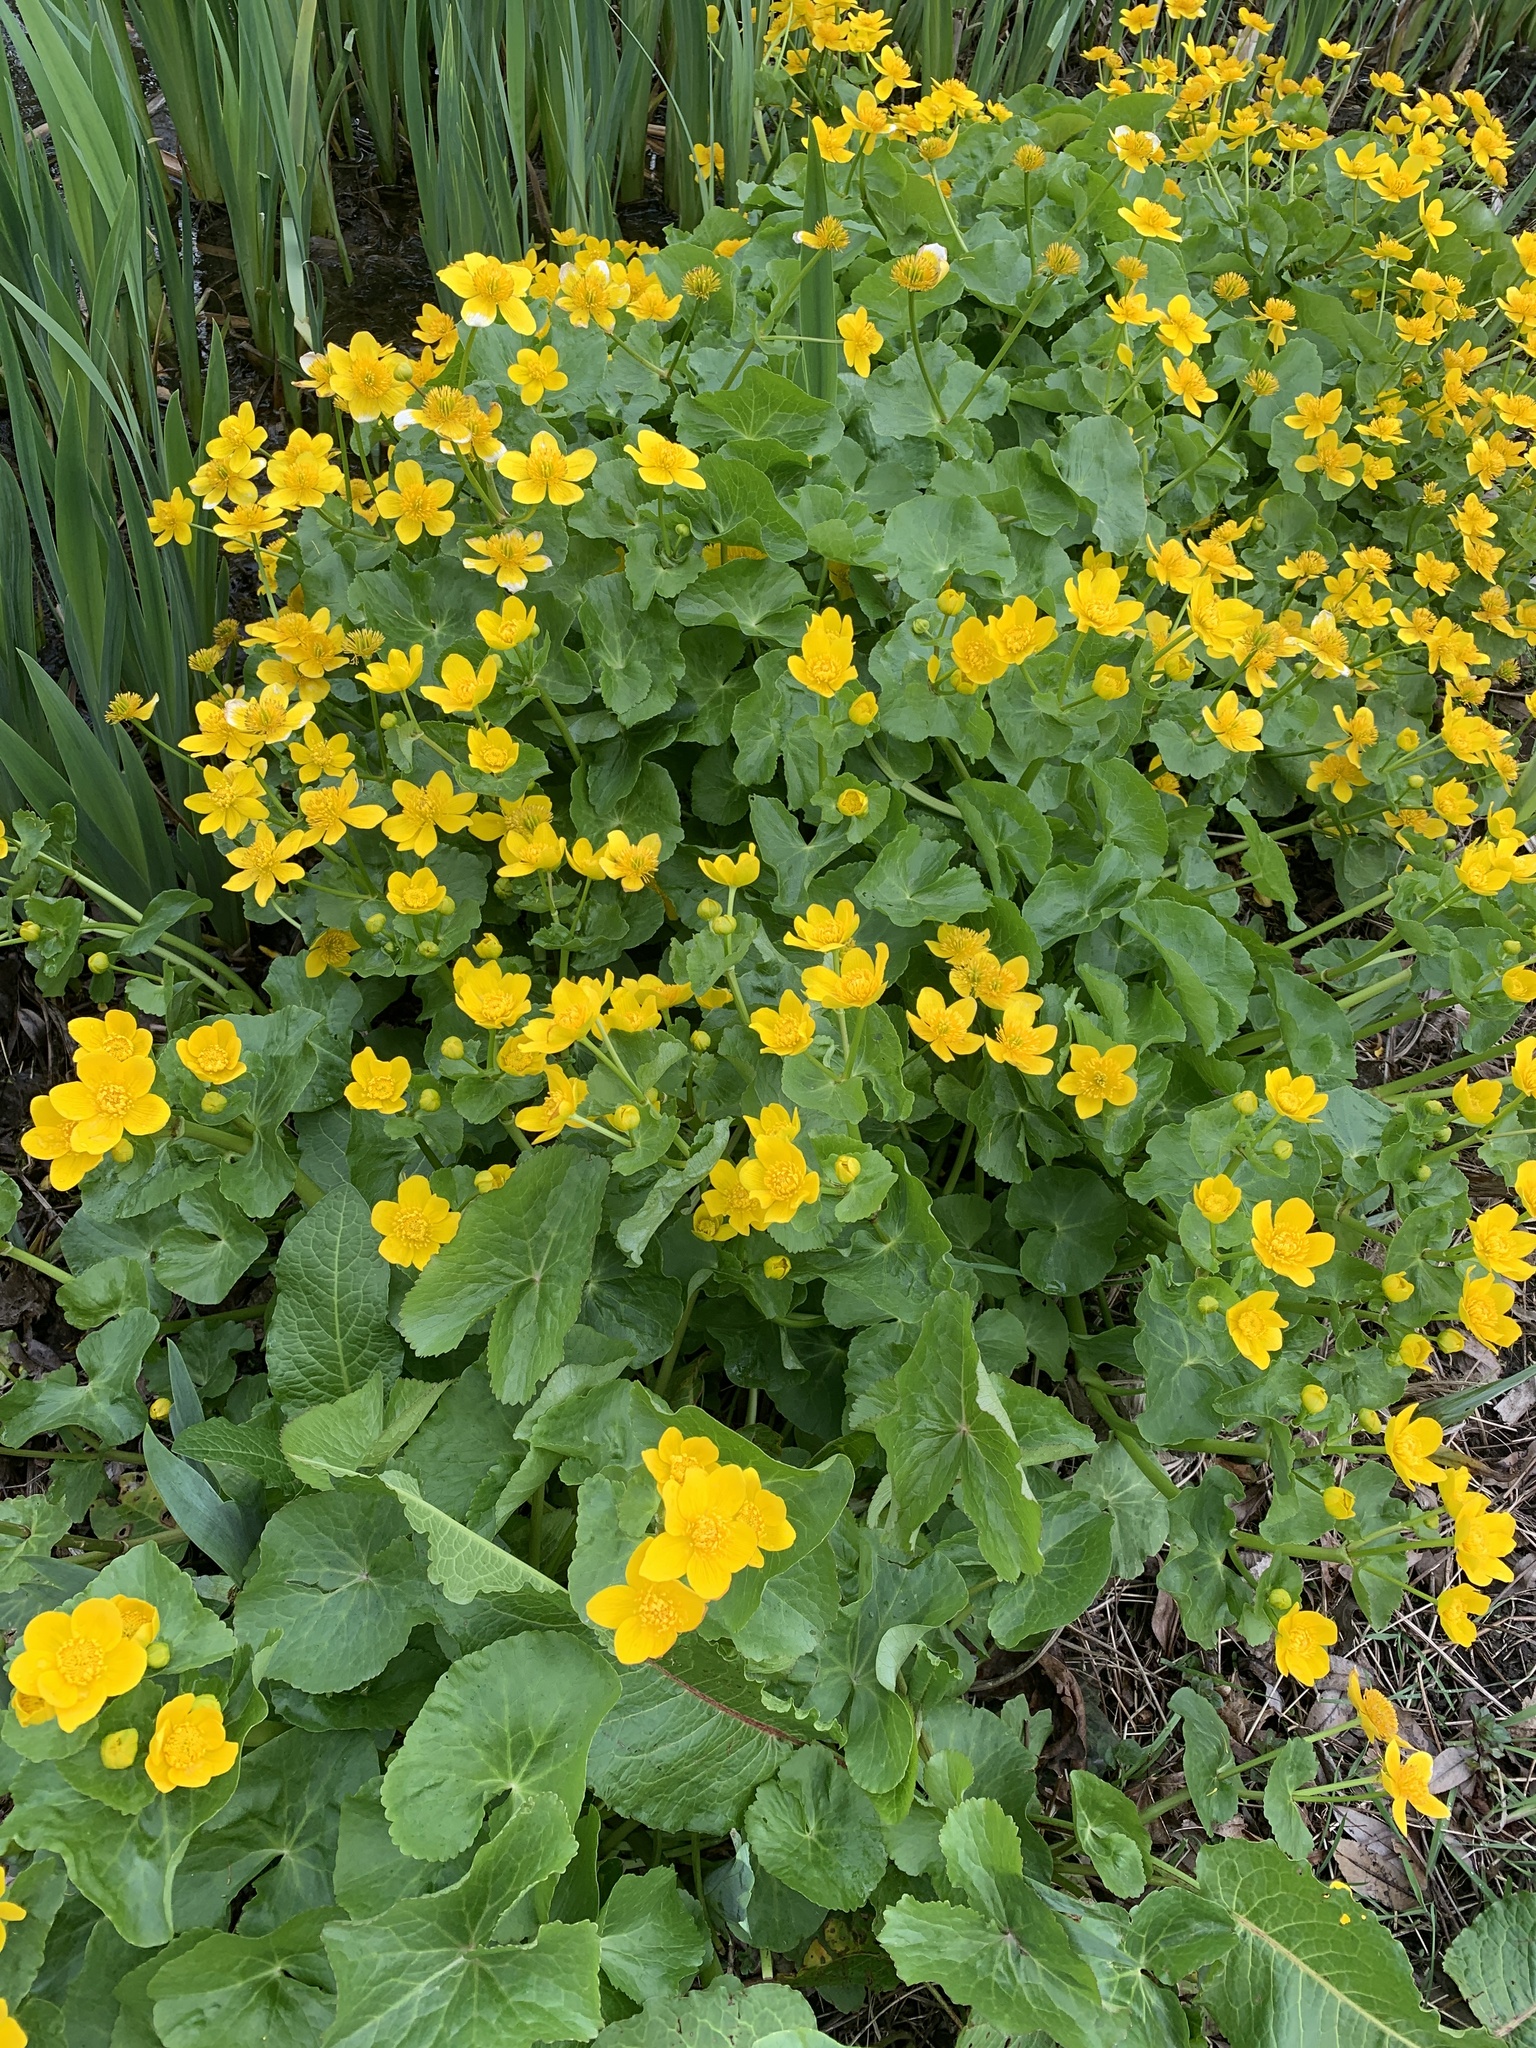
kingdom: Plantae
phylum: Tracheophyta
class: Magnoliopsida
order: Ranunculales
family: Ranunculaceae
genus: Caltha
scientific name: Caltha palustris
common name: Marsh marigold
